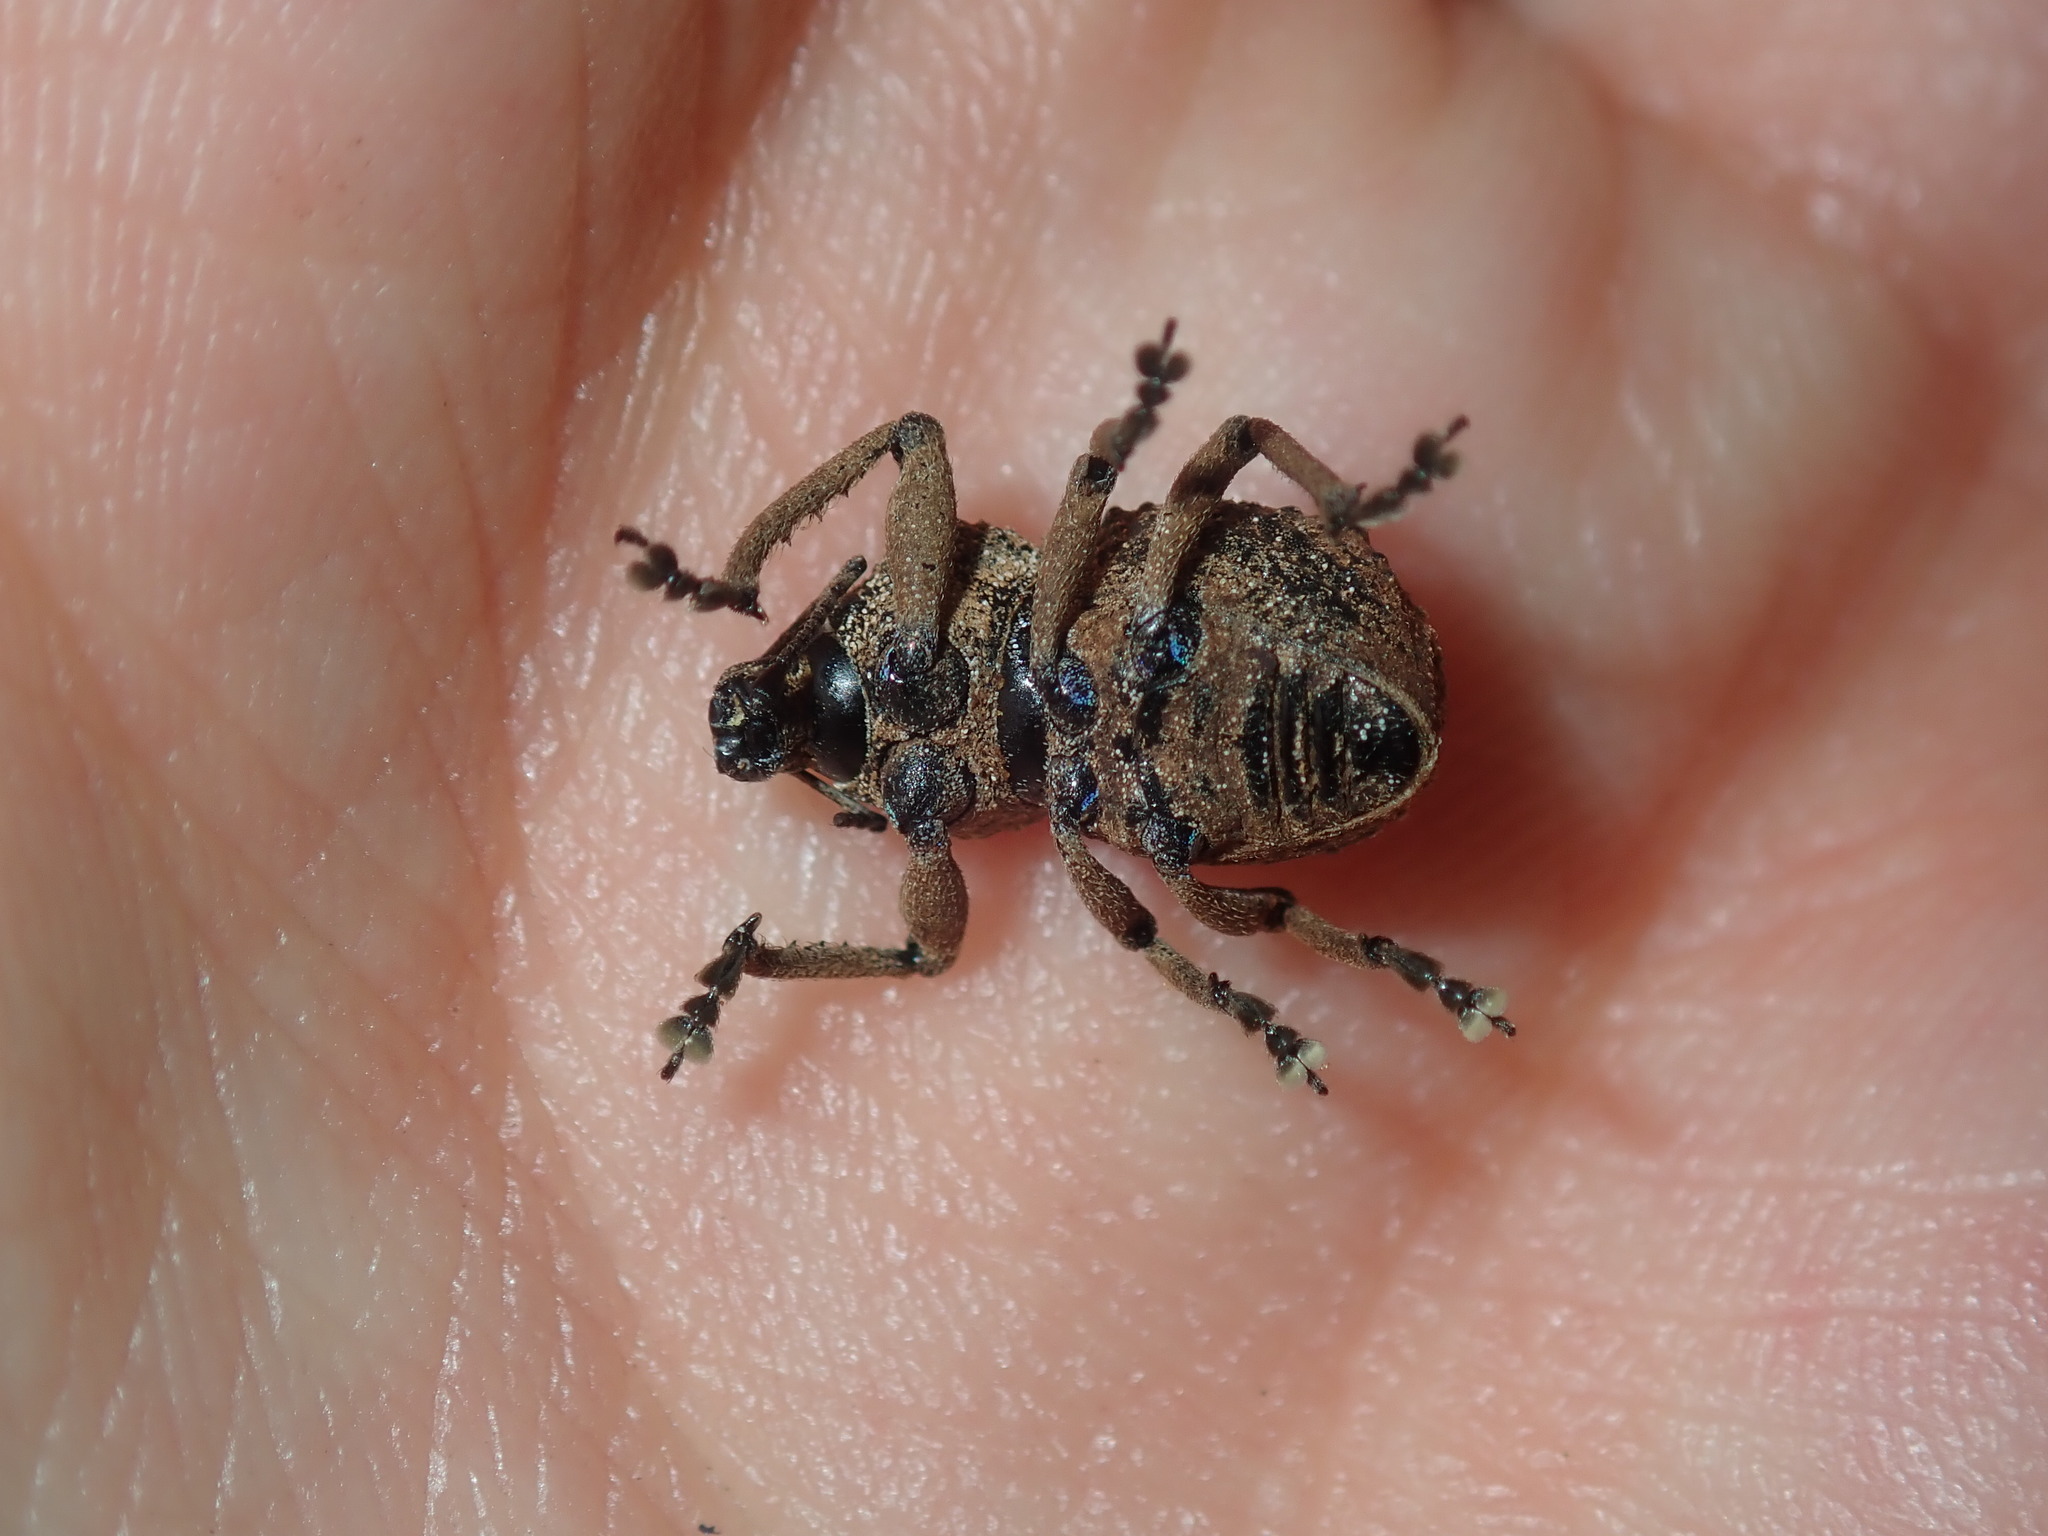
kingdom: Animalia
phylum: Arthropoda
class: Insecta
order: Coleoptera
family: Curculionidae
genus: Psapharus
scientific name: Psapharus infaustus
